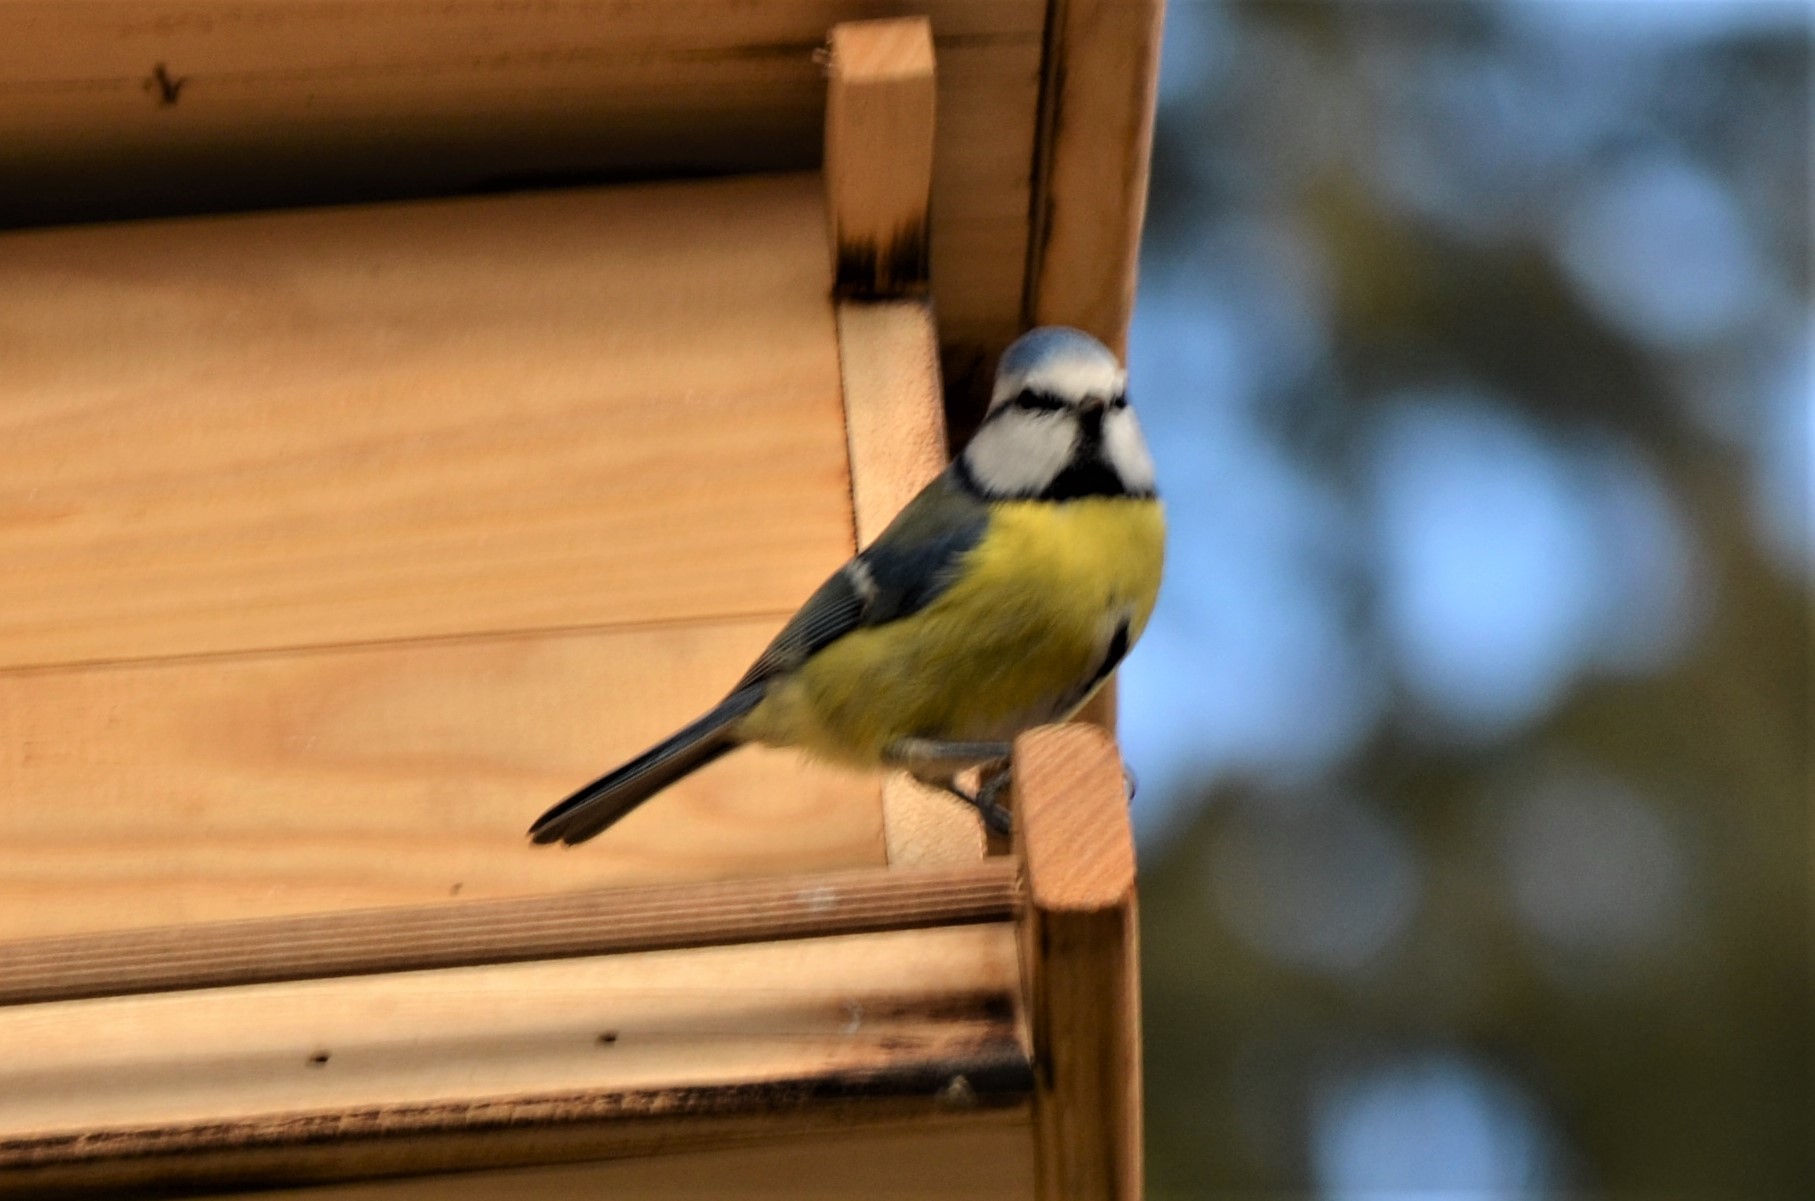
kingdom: Animalia
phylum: Chordata
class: Aves
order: Passeriformes
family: Paridae
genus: Cyanistes
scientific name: Cyanistes caeruleus
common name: Eurasian blue tit
